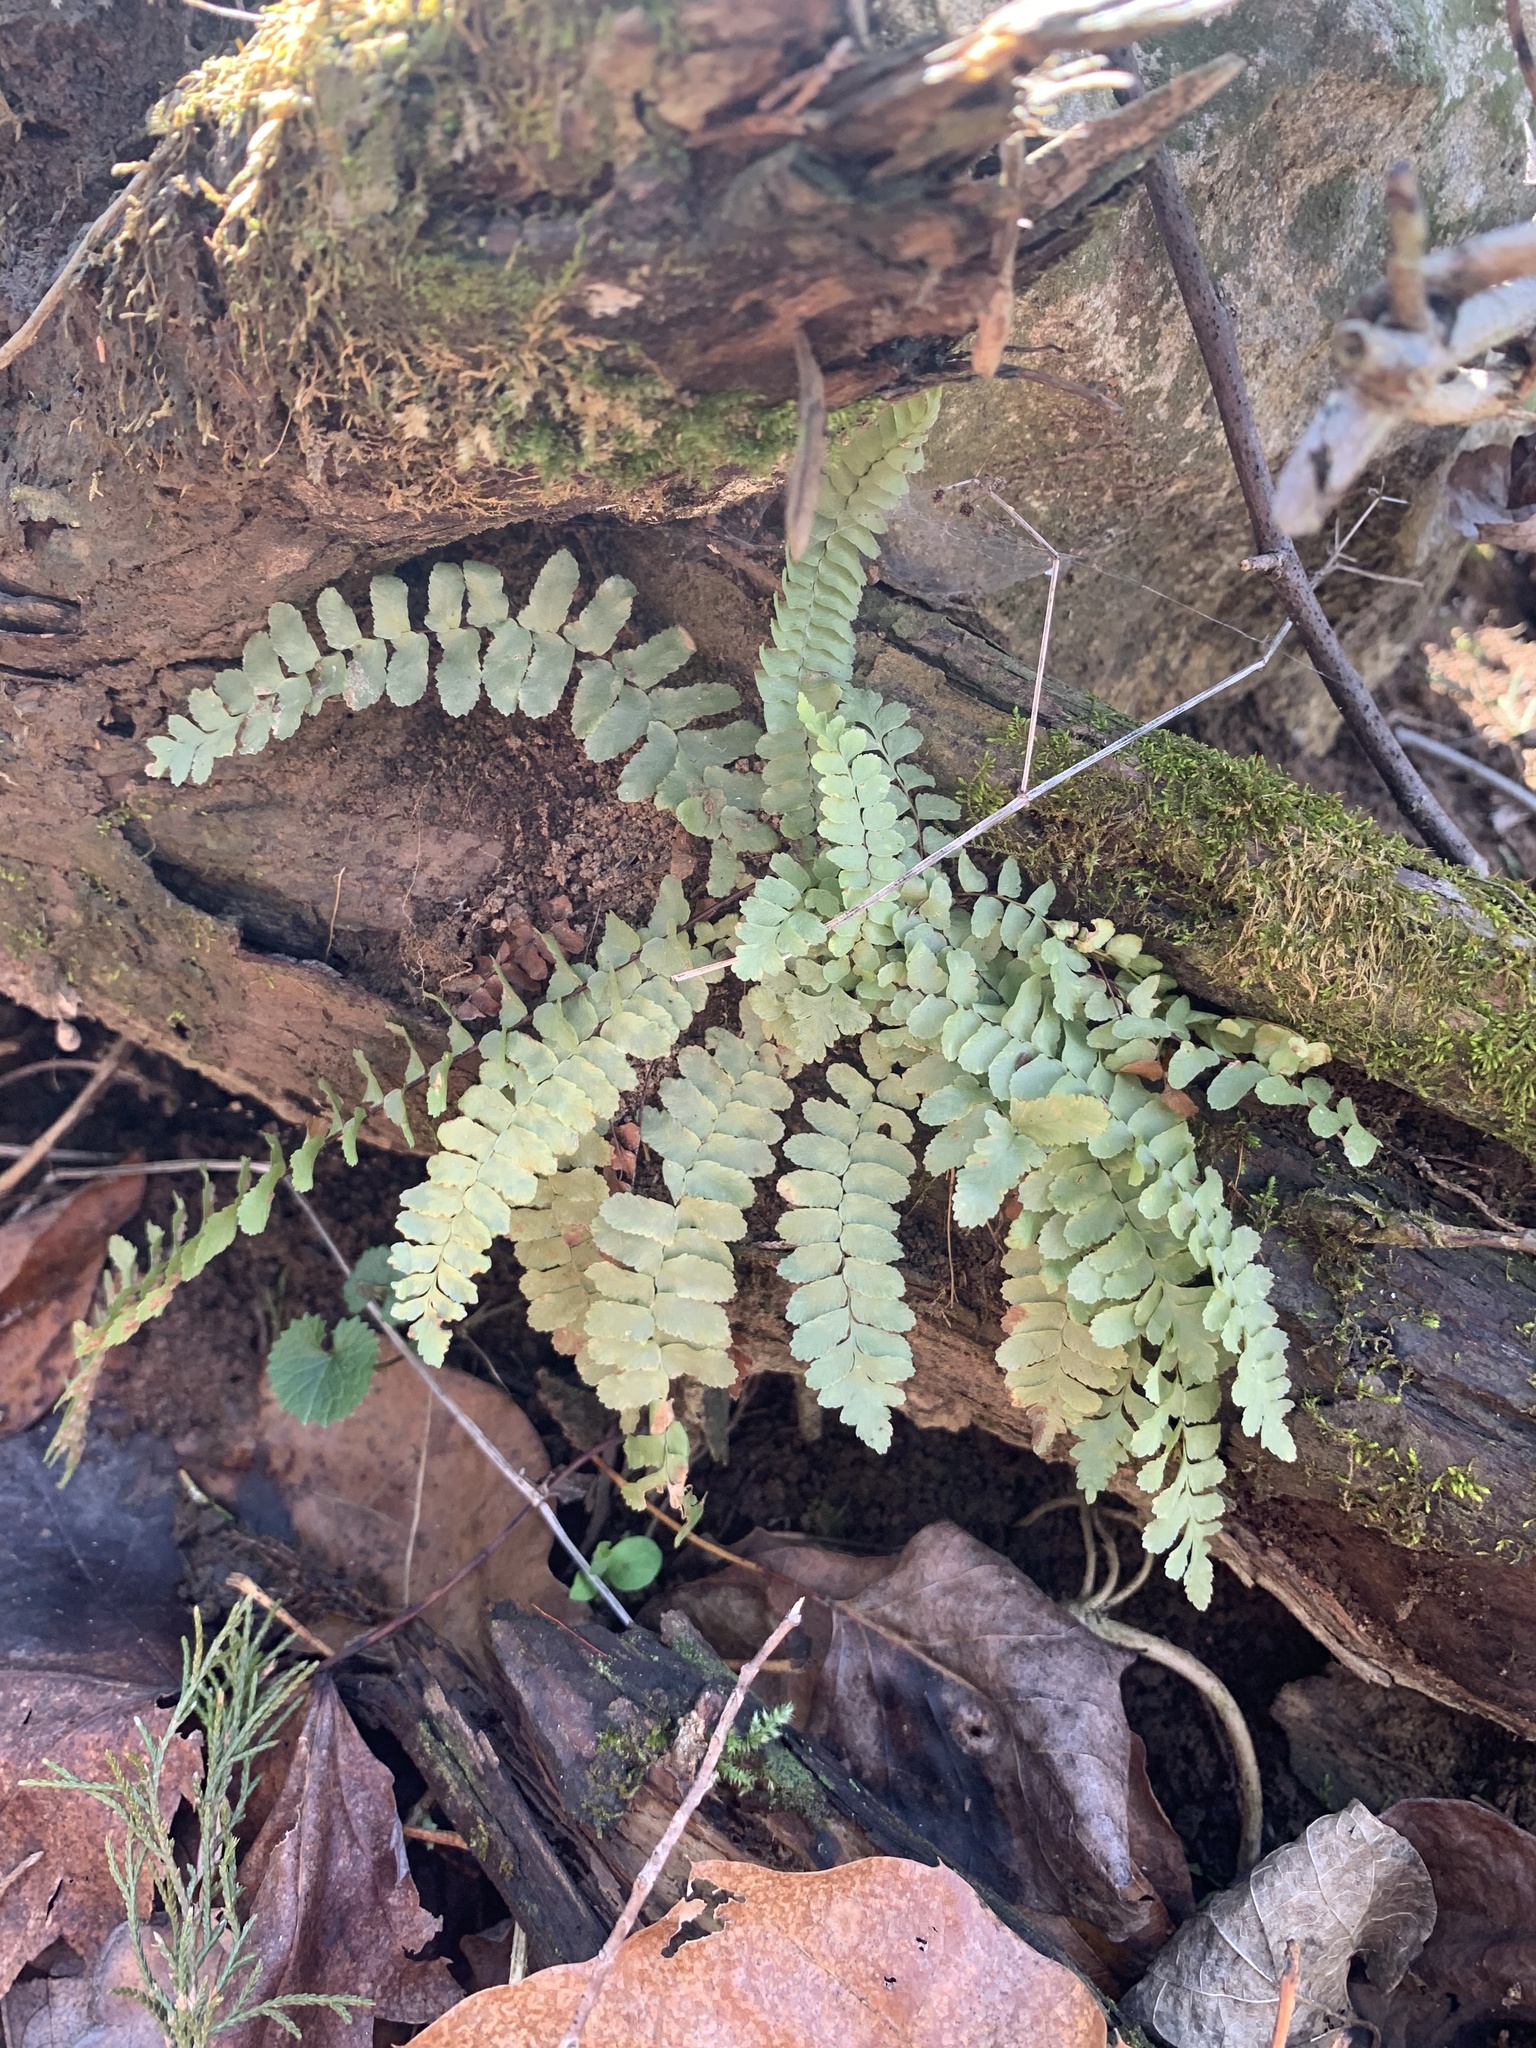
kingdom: Plantae
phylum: Tracheophyta
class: Polypodiopsida
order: Polypodiales
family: Aspleniaceae
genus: Asplenium
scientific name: Asplenium platyneuron
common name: Ebony spleenwort
